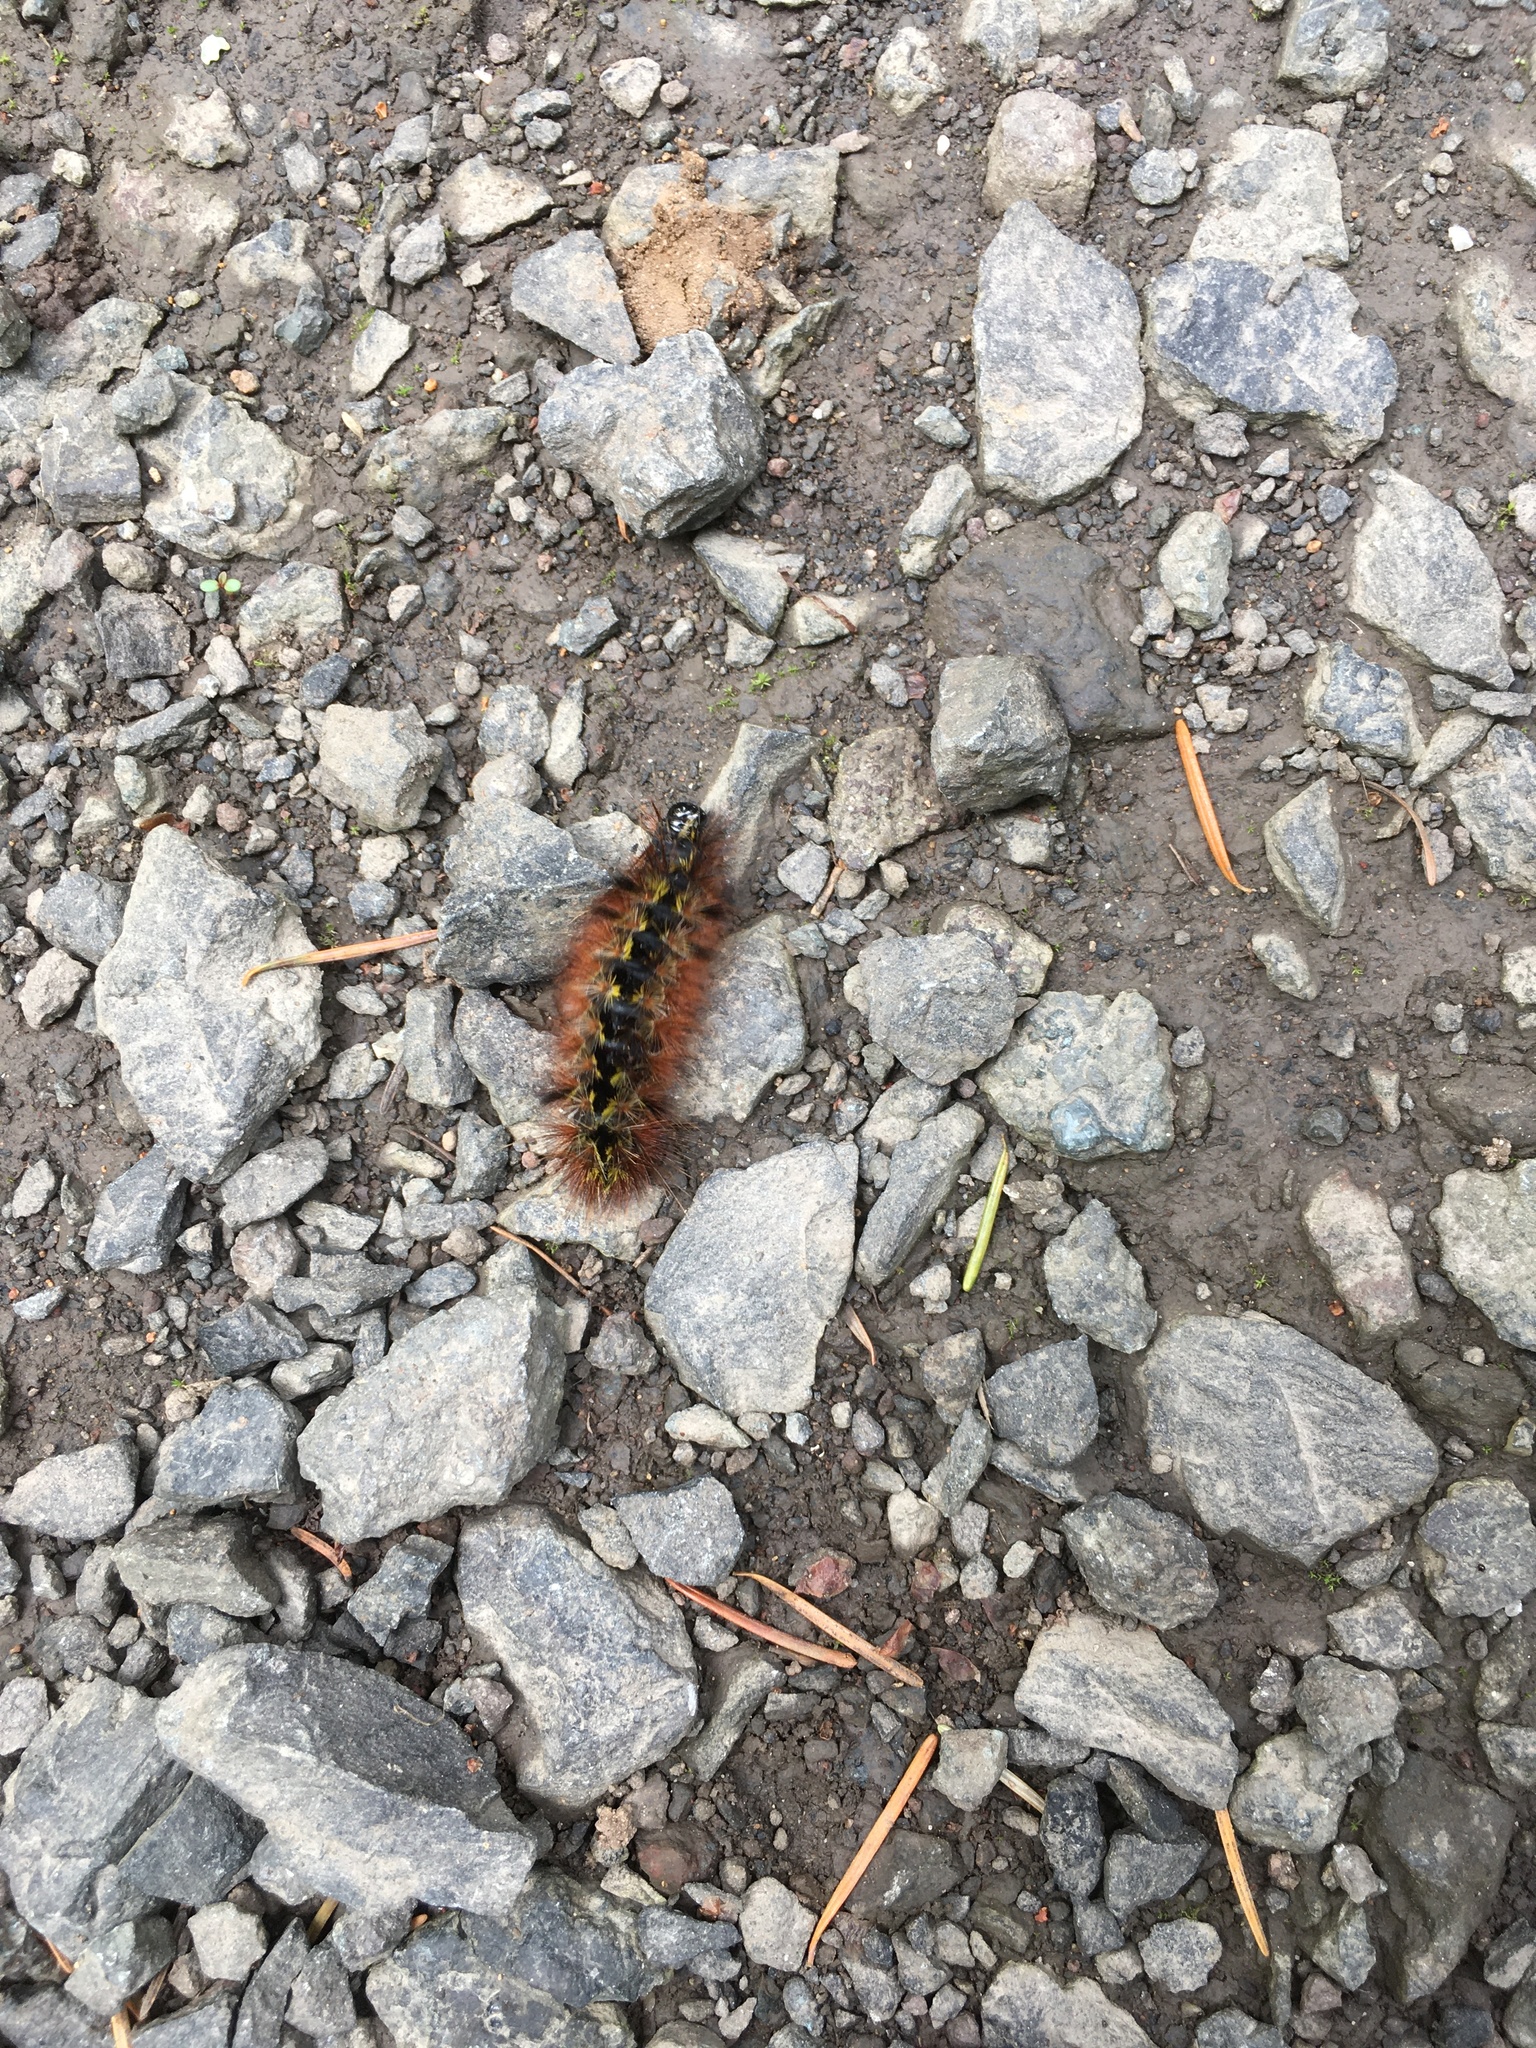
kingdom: Animalia
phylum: Arthropoda
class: Insecta
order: Lepidoptera
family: Erebidae
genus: Lophocampa
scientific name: Lophocampa argentata
